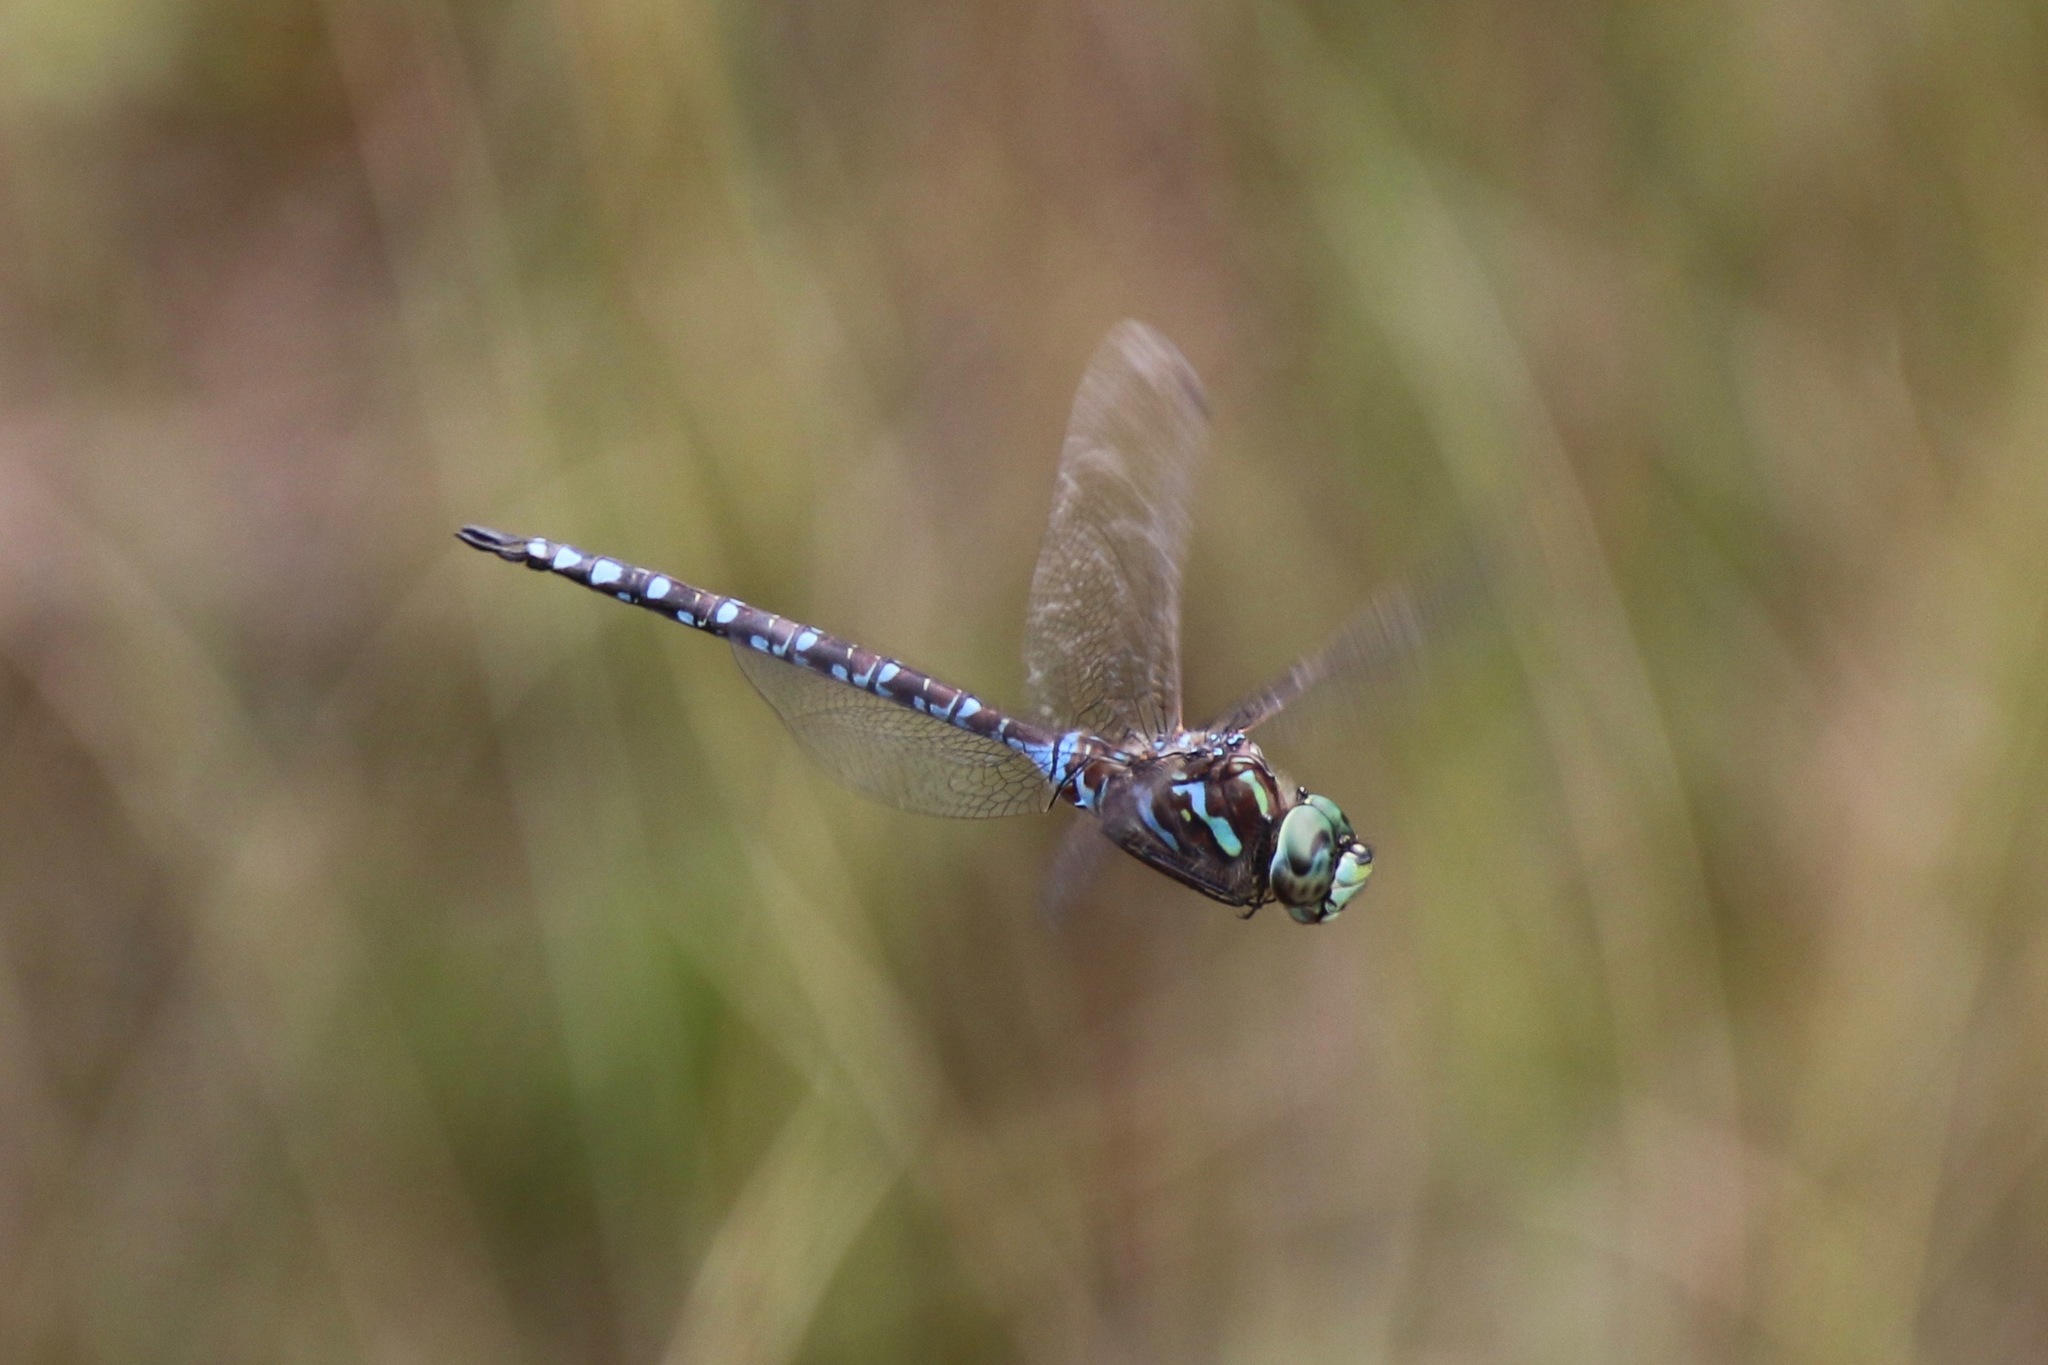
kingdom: Animalia
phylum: Arthropoda
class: Insecta
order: Odonata
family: Aeshnidae
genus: Aeshna
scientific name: Aeshna canadensis
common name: Canada darner
